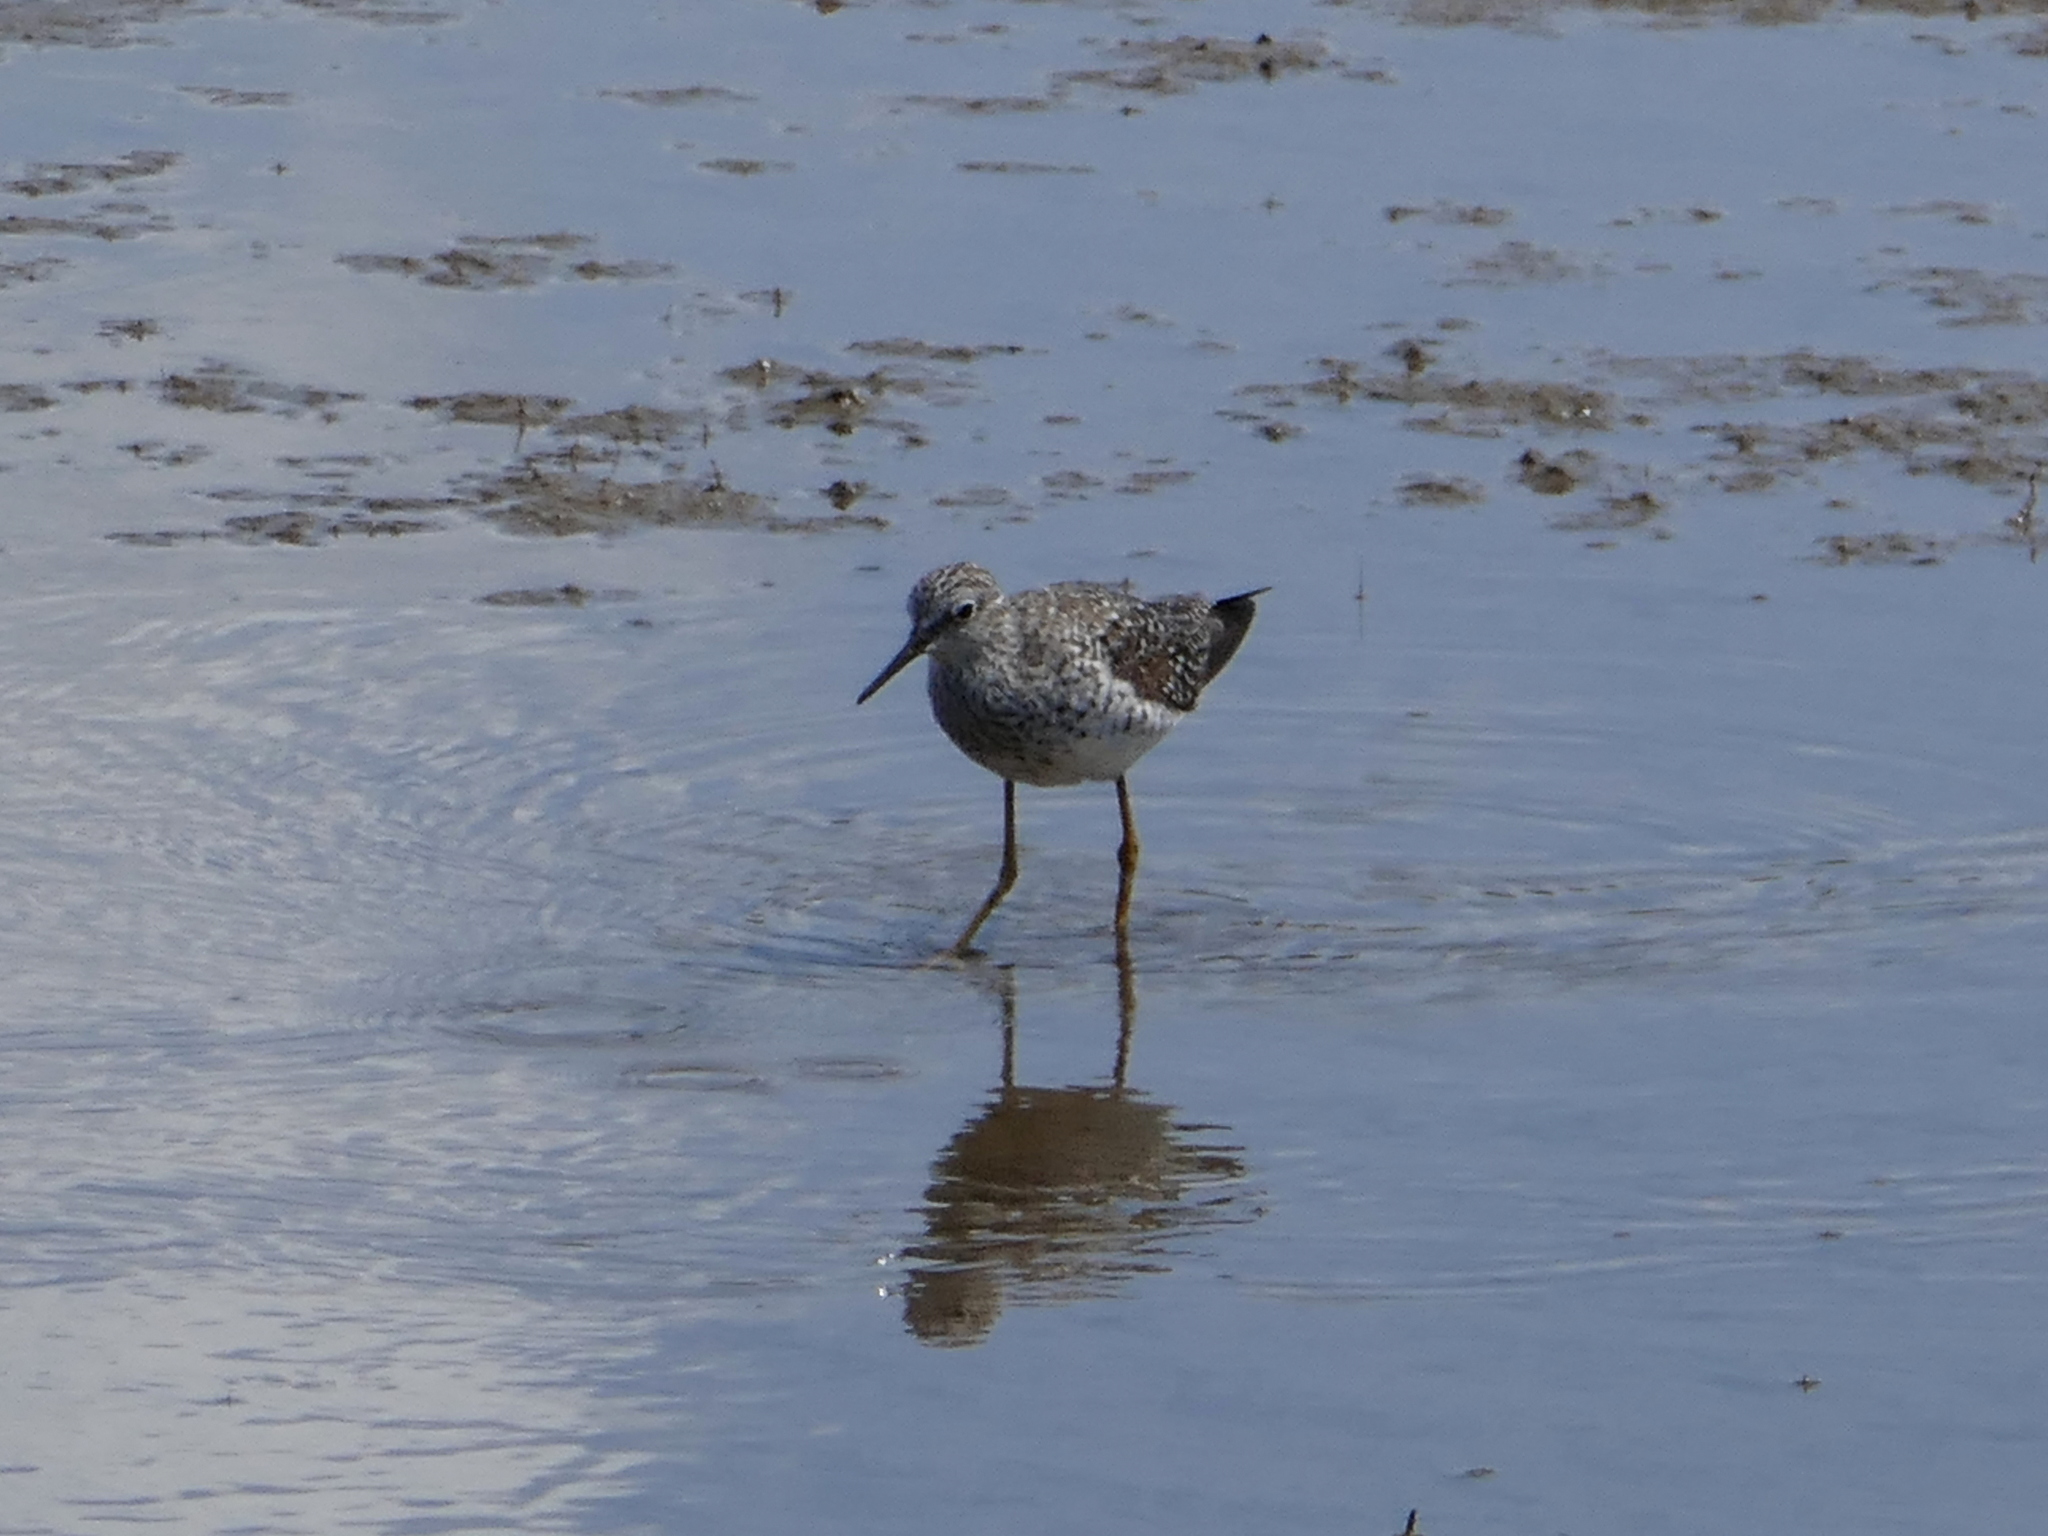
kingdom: Animalia
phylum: Chordata
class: Aves
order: Charadriiformes
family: Scolopacidae
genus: Tringa
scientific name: Tringa flavipes
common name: Lesser yellowlegs
